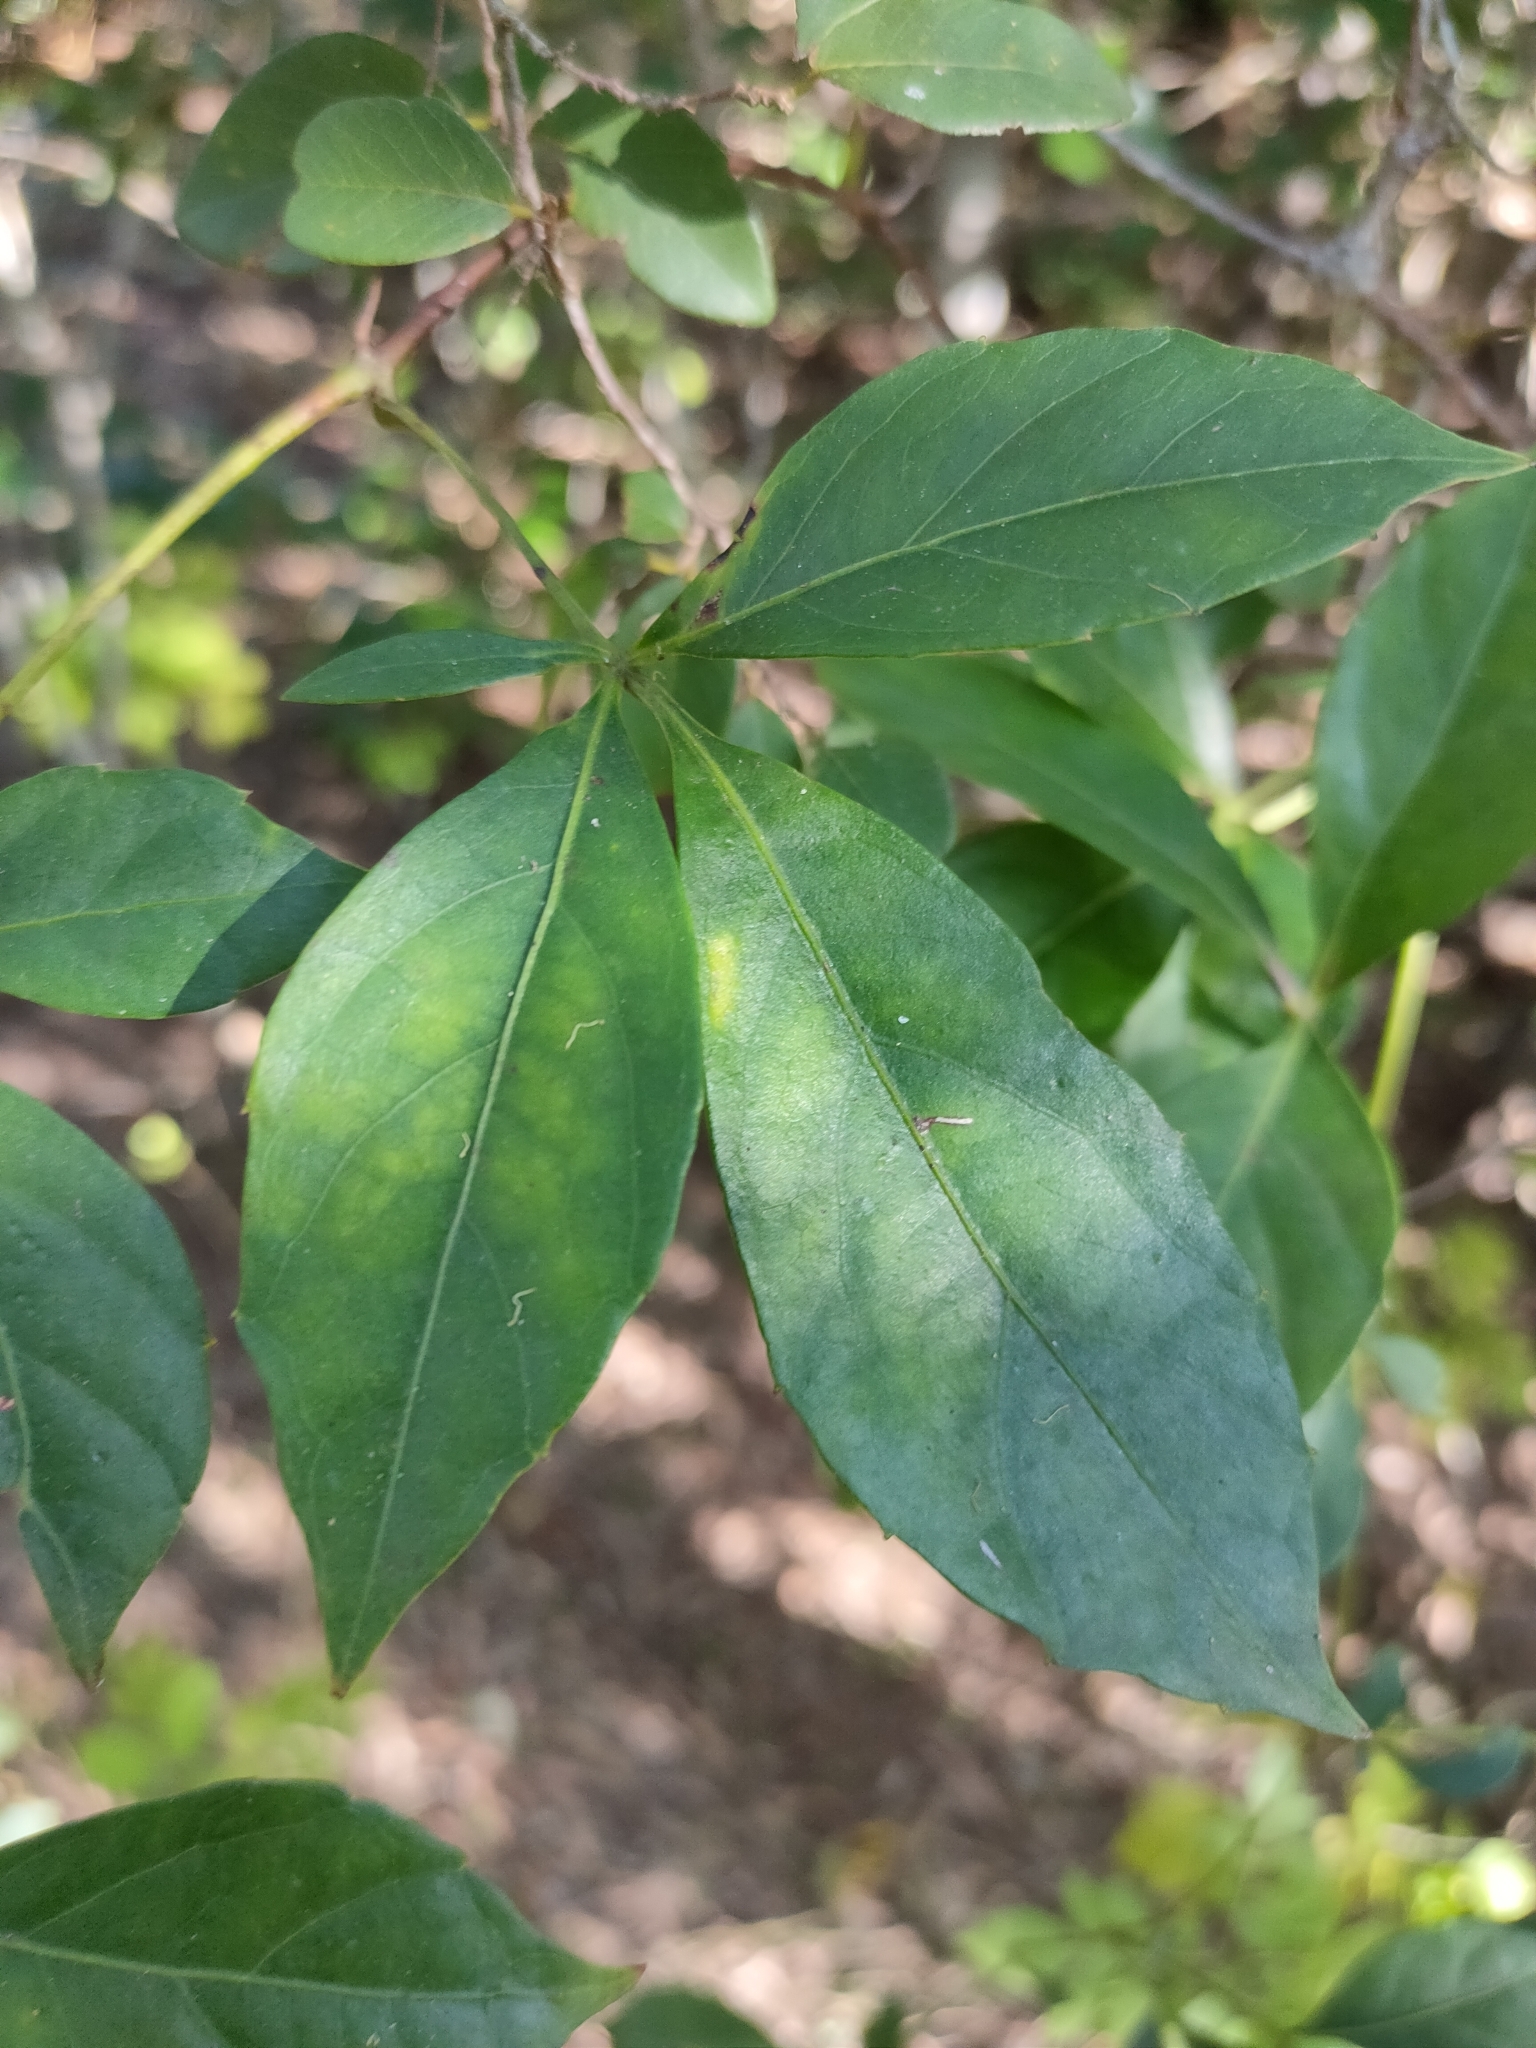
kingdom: Plantae
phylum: Tracheophyta
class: Magnoliopsida
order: Vitales
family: Vitaceae
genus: Clematicissus
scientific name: Clematicissus opaca
